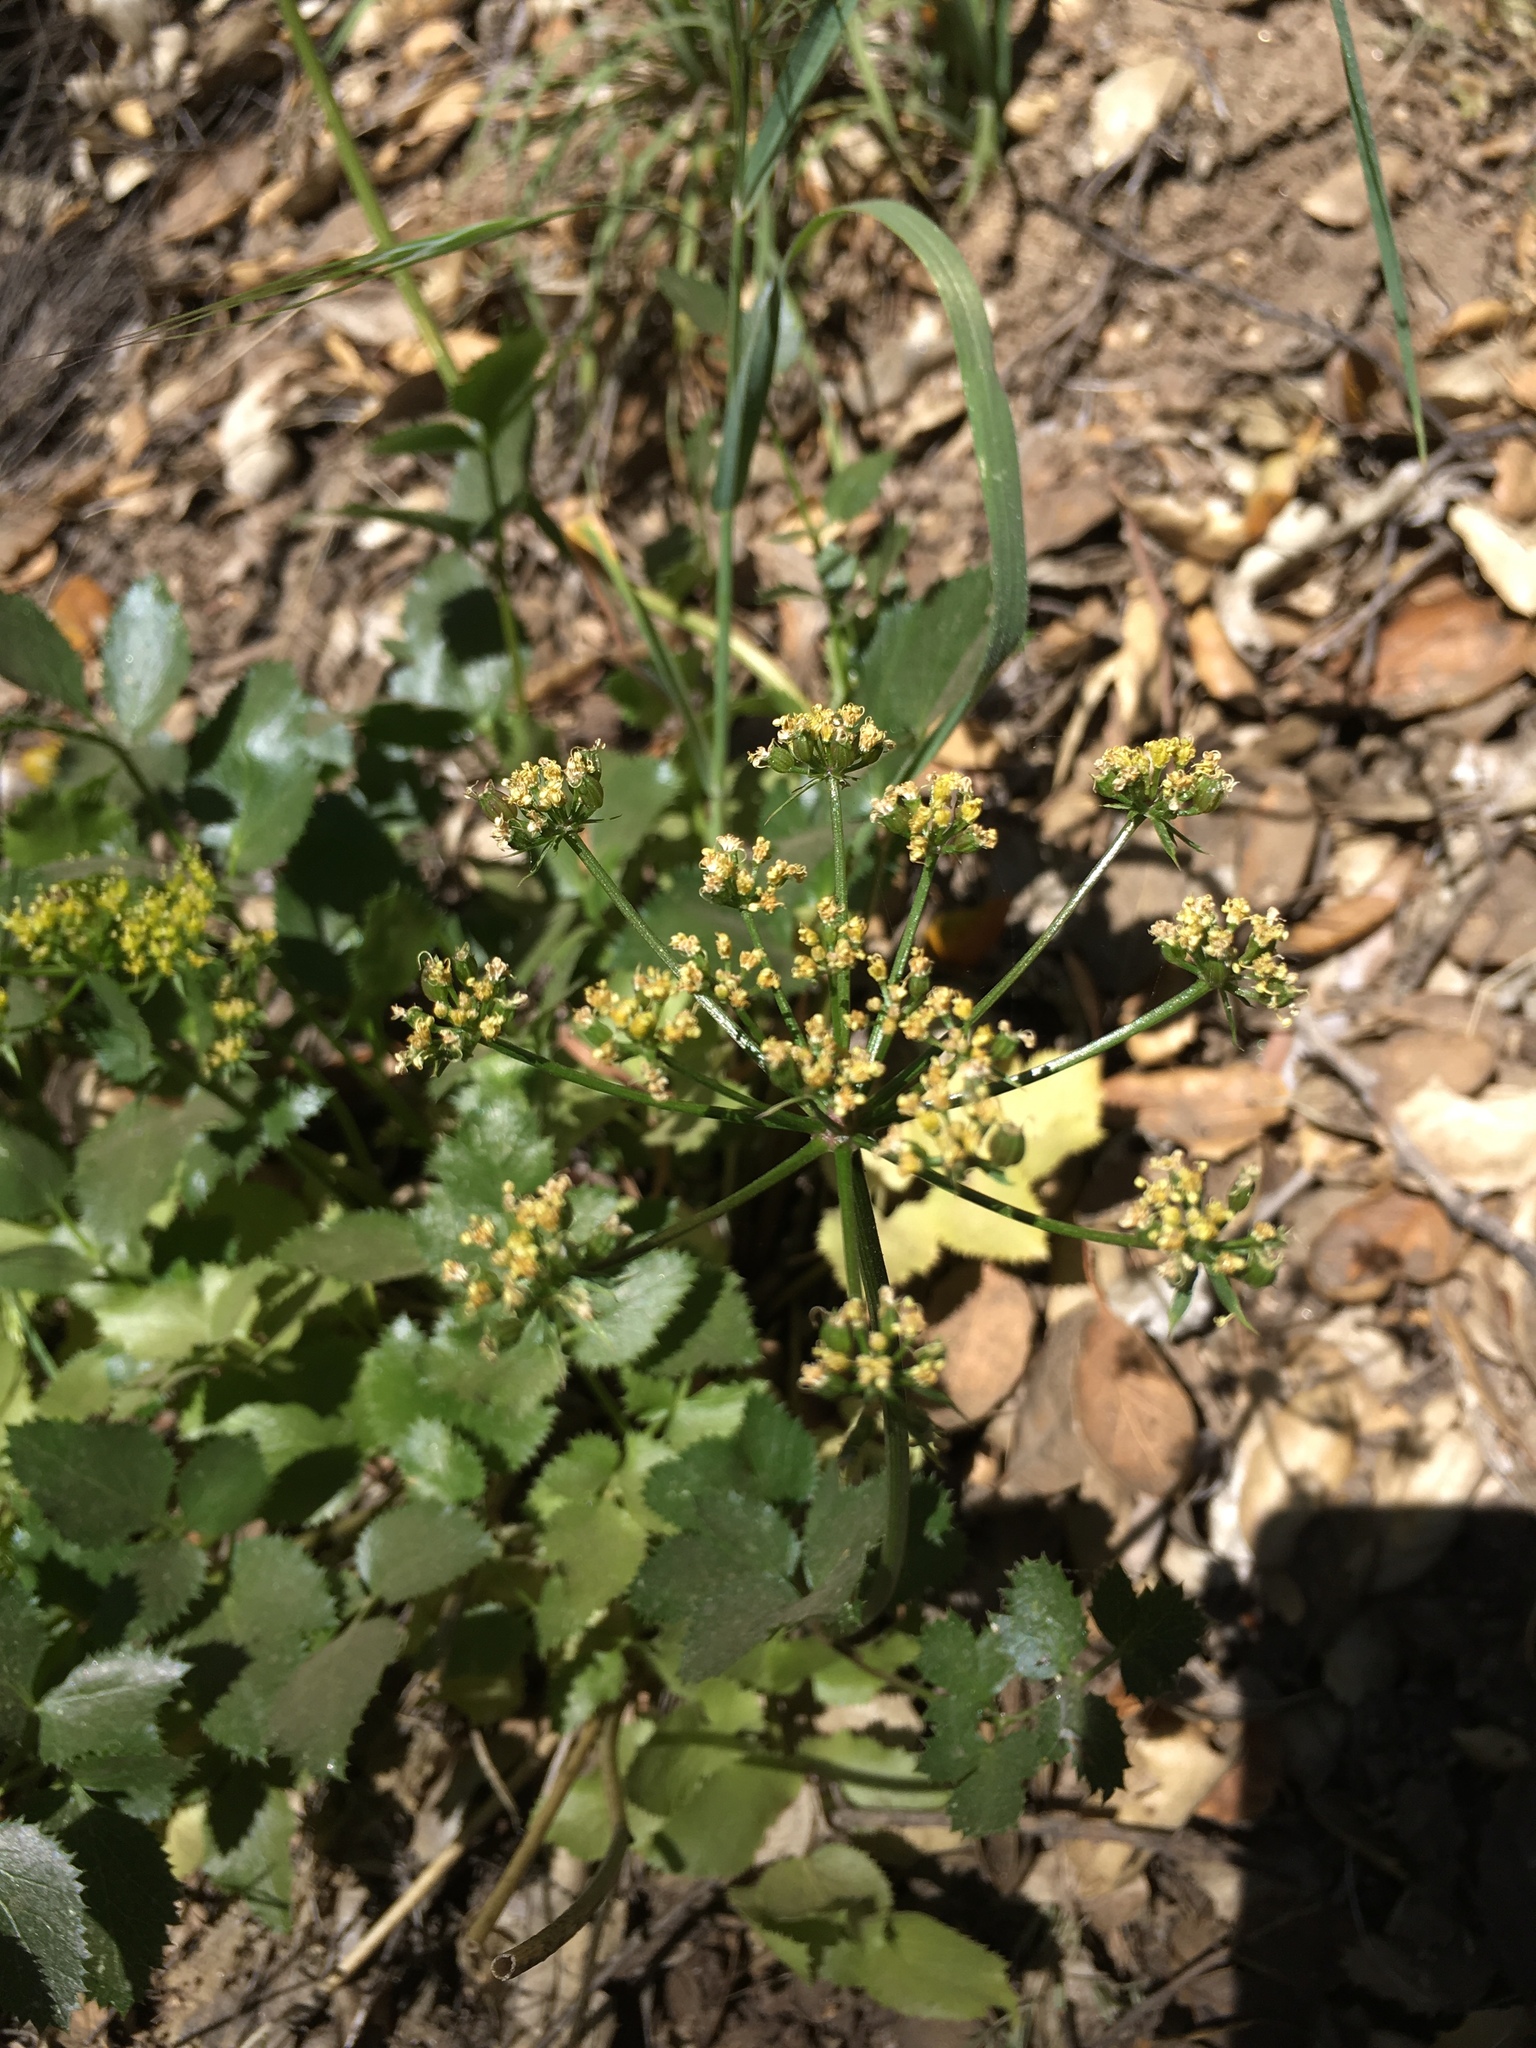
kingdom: Plantae
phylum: Tracheophyta
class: Magnoliopsida
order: Apiales
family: Apiaceae
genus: Tauschia
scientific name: Tauschia arguta
